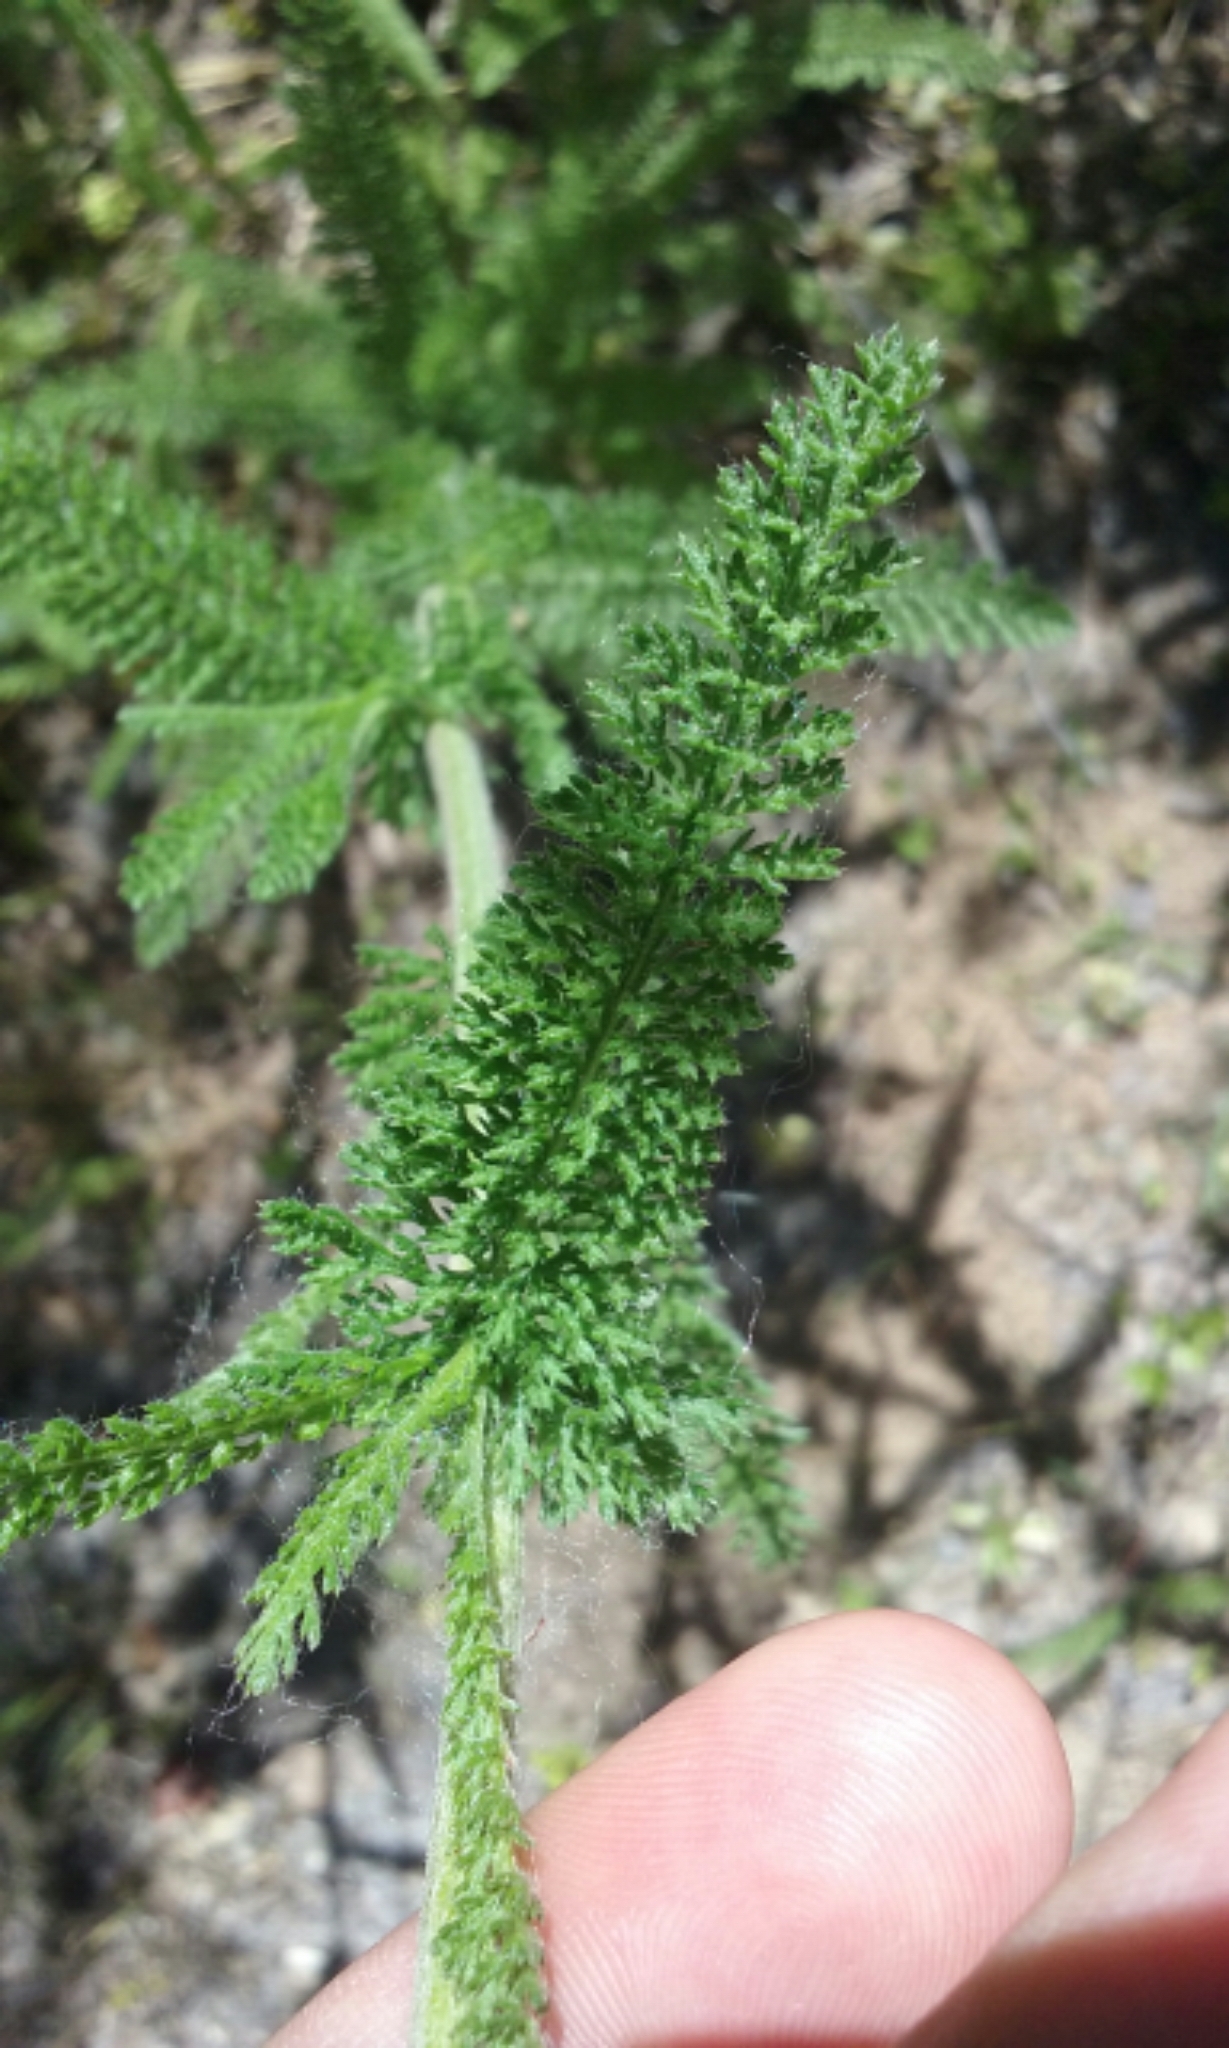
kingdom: Plantae
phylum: Tracheophyta
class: Magnoliopsida
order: Asterales
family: Asteraceae
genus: Achillea
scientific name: Achillea millefolium
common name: Yarrow
